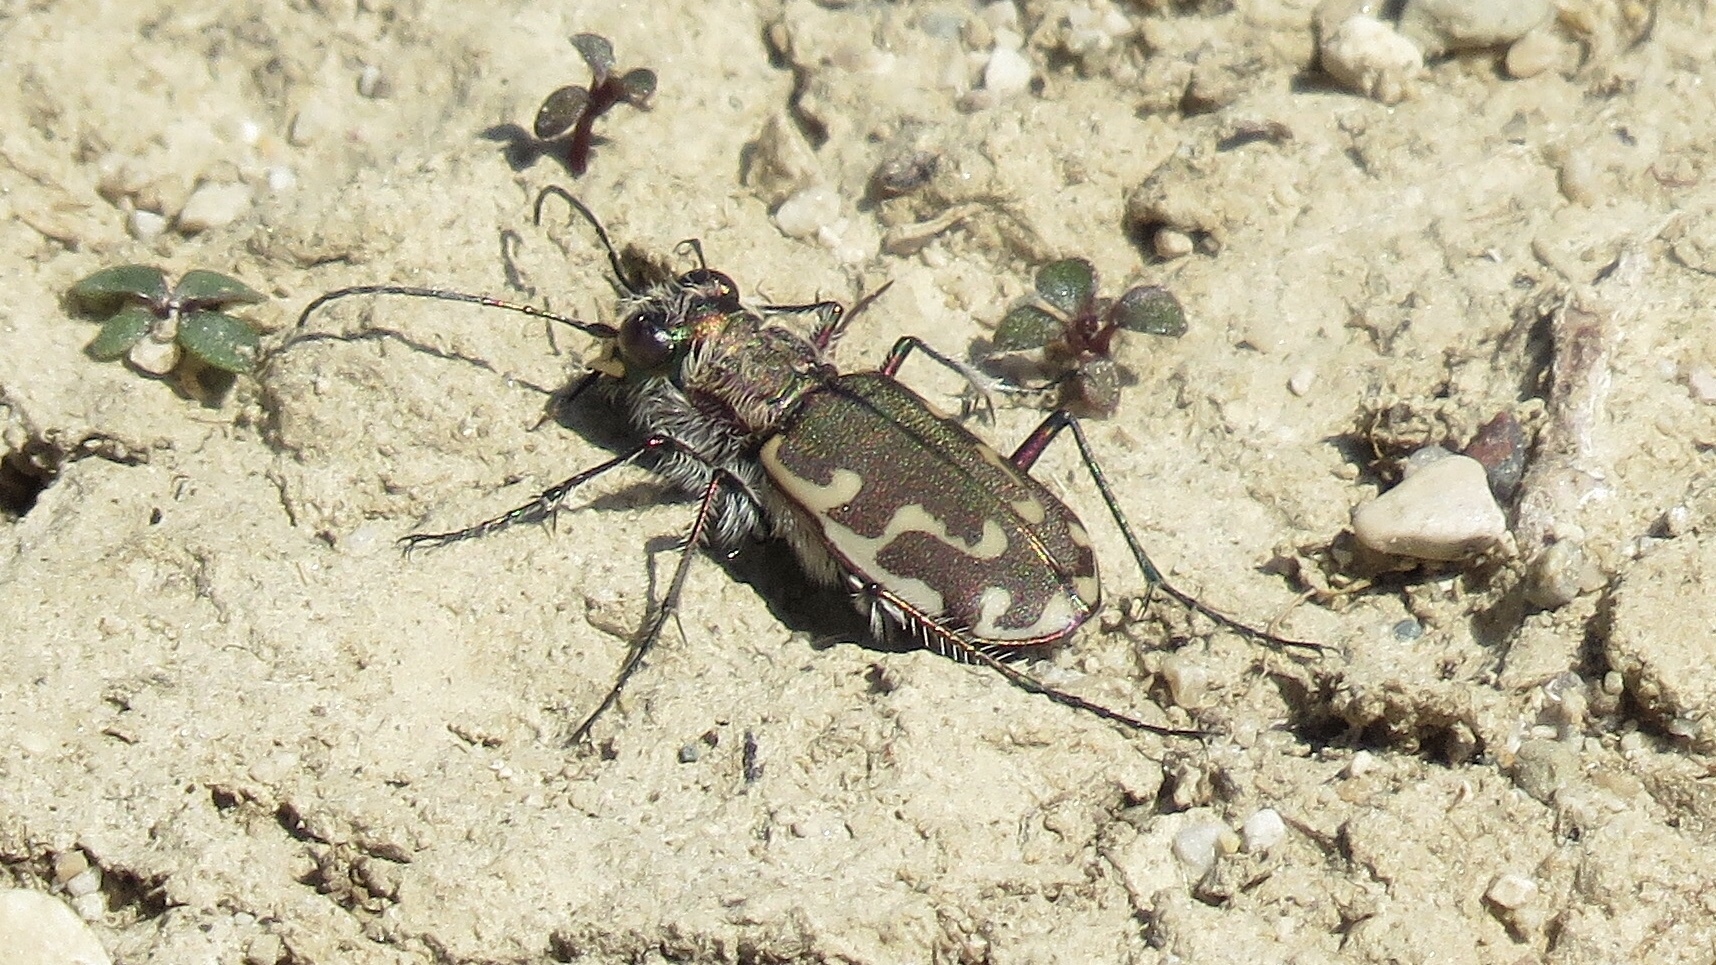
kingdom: Animalia
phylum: Arthropoda
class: Insecta
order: Coleoptera
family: Carabidae
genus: Cicindela
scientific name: Cicindela repanda
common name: Bronzed tiger beetle
